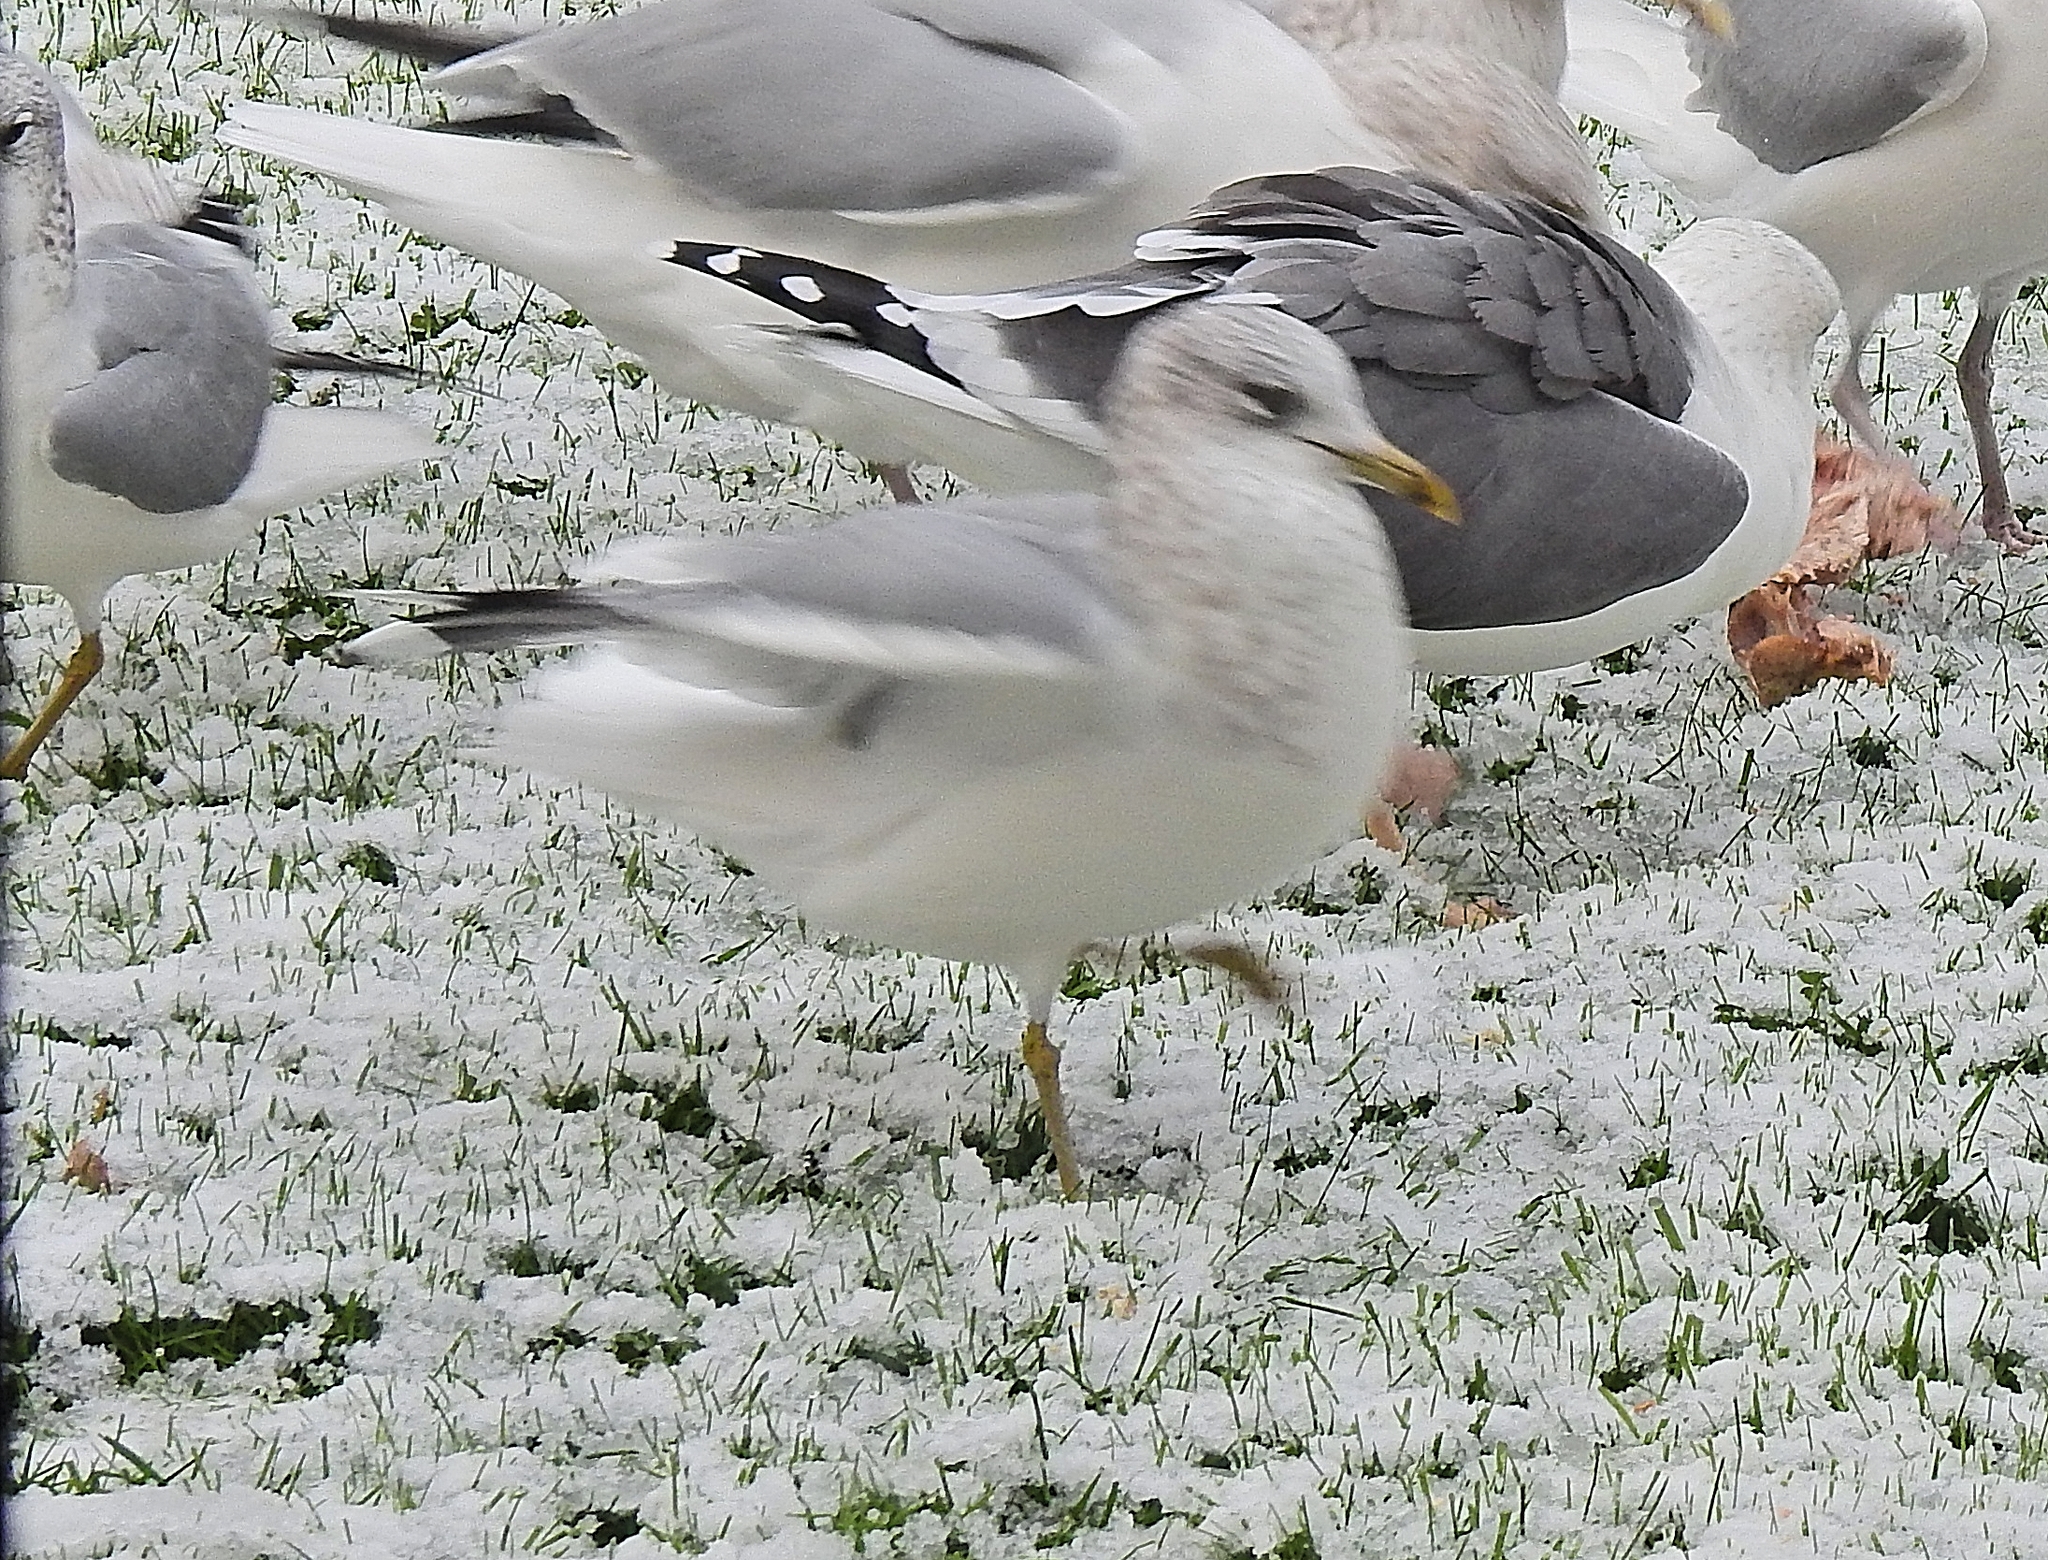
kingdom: Animalia
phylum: Chordata
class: Aves
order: Charadriiformes
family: Laridae
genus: Larus
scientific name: Larus canus
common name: Mew gull
